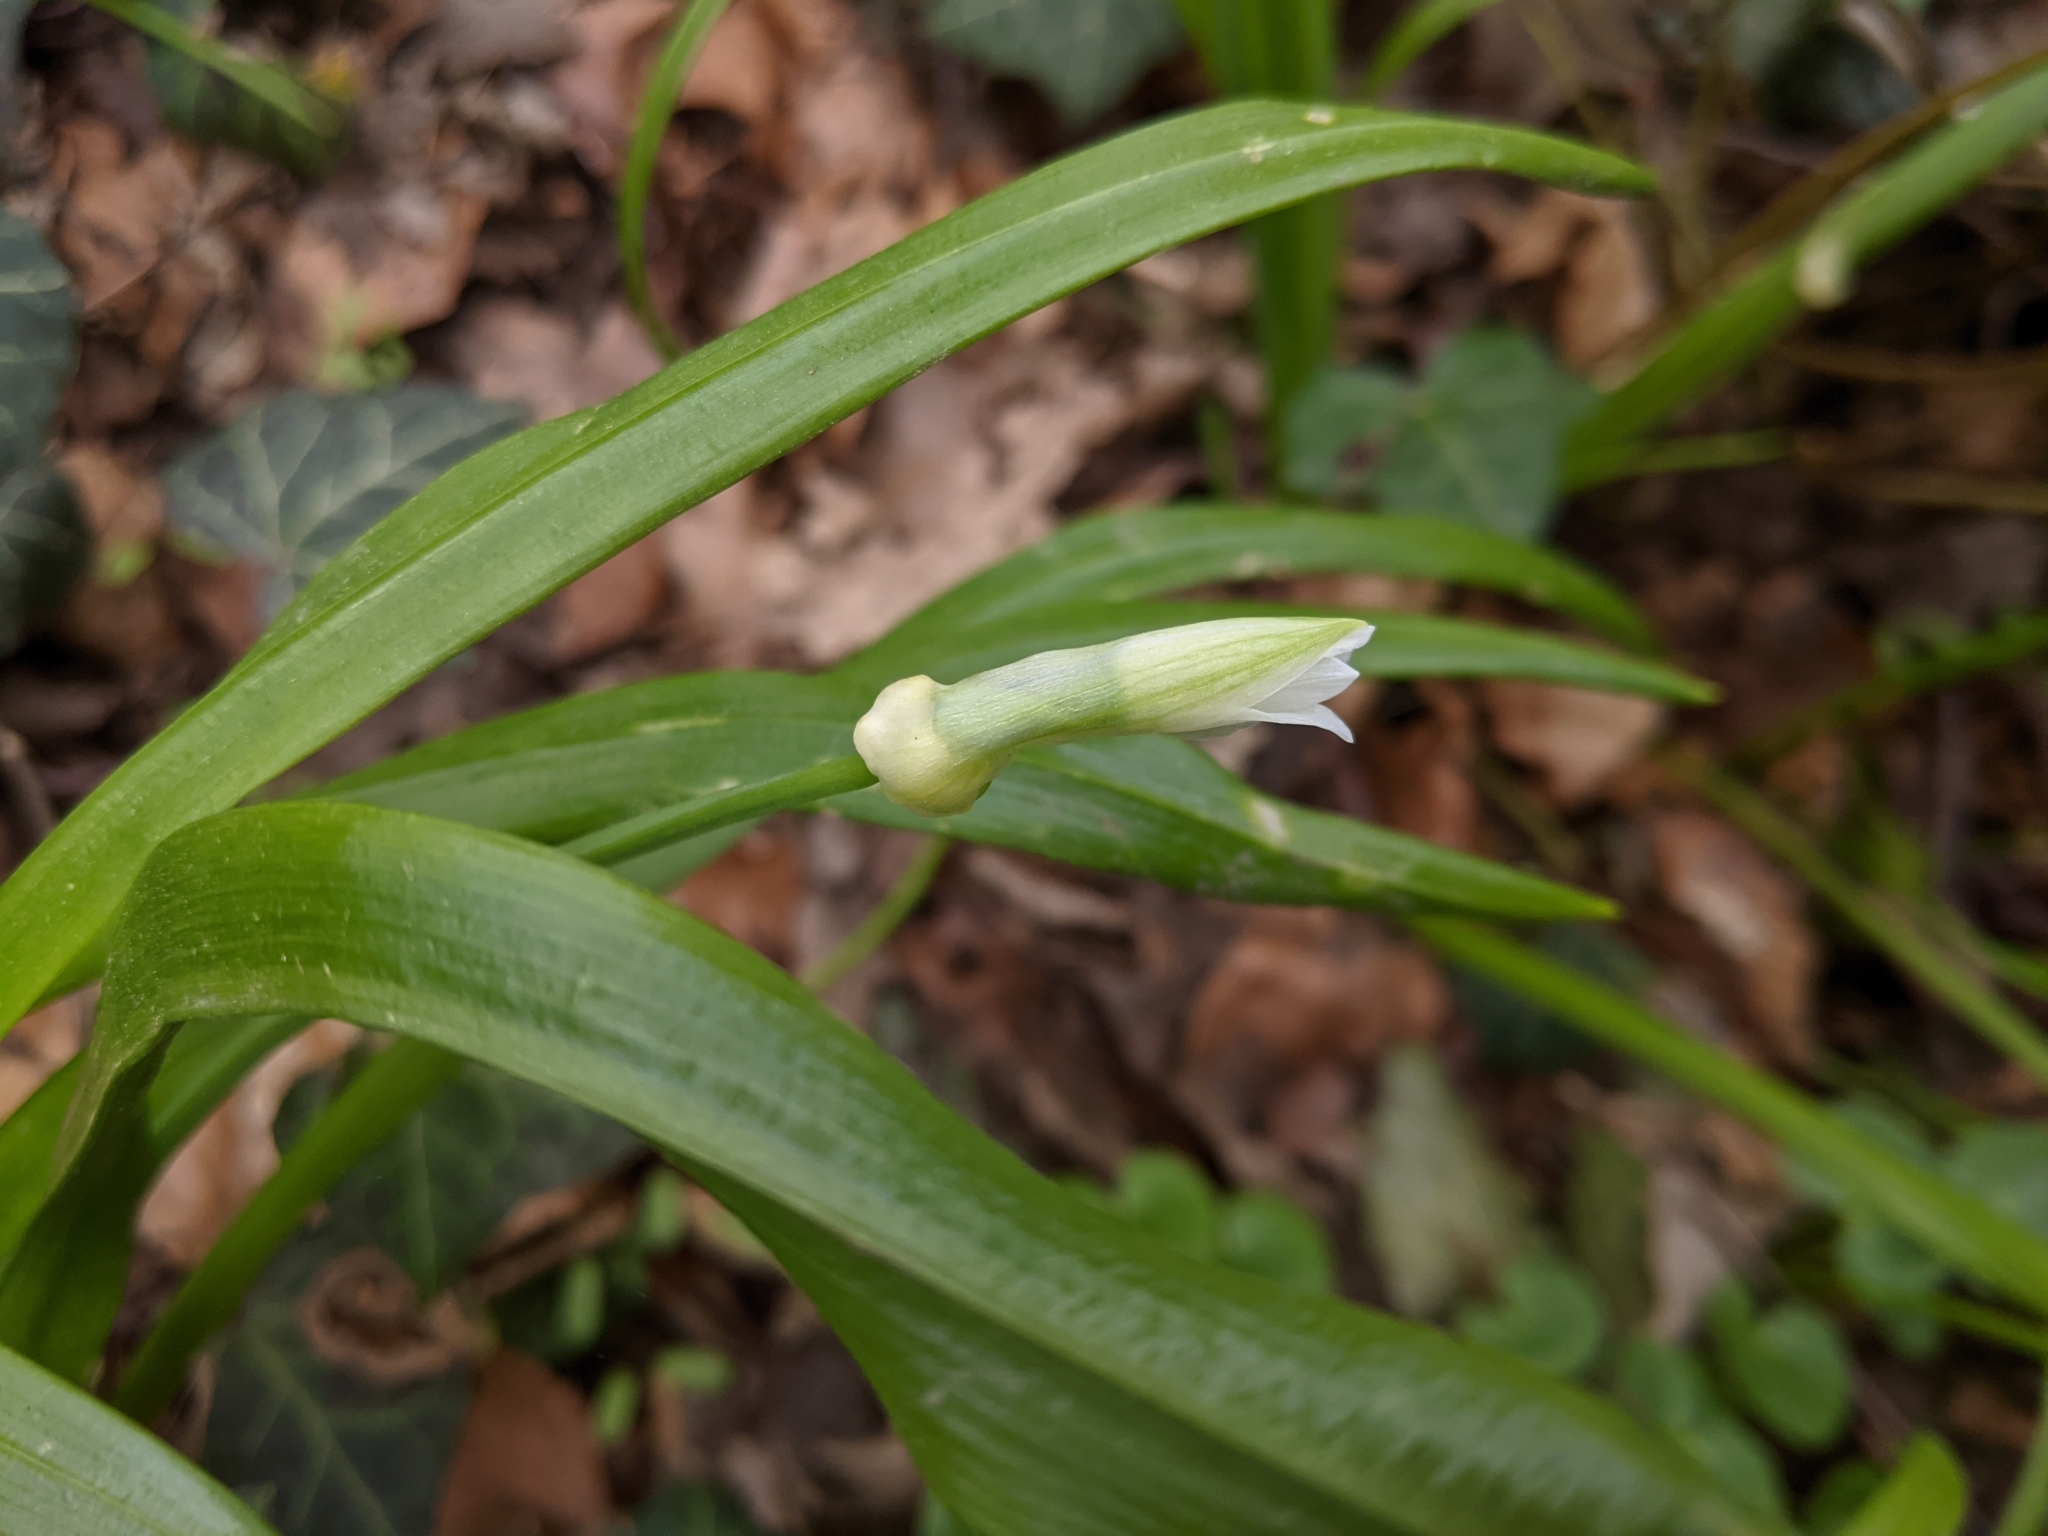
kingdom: Plantae
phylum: Tracheophyta
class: Liliopsida
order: Asparagales
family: Amaryllidaceae
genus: Allium
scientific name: Allium paradoxum
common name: Few-flowered garlic
